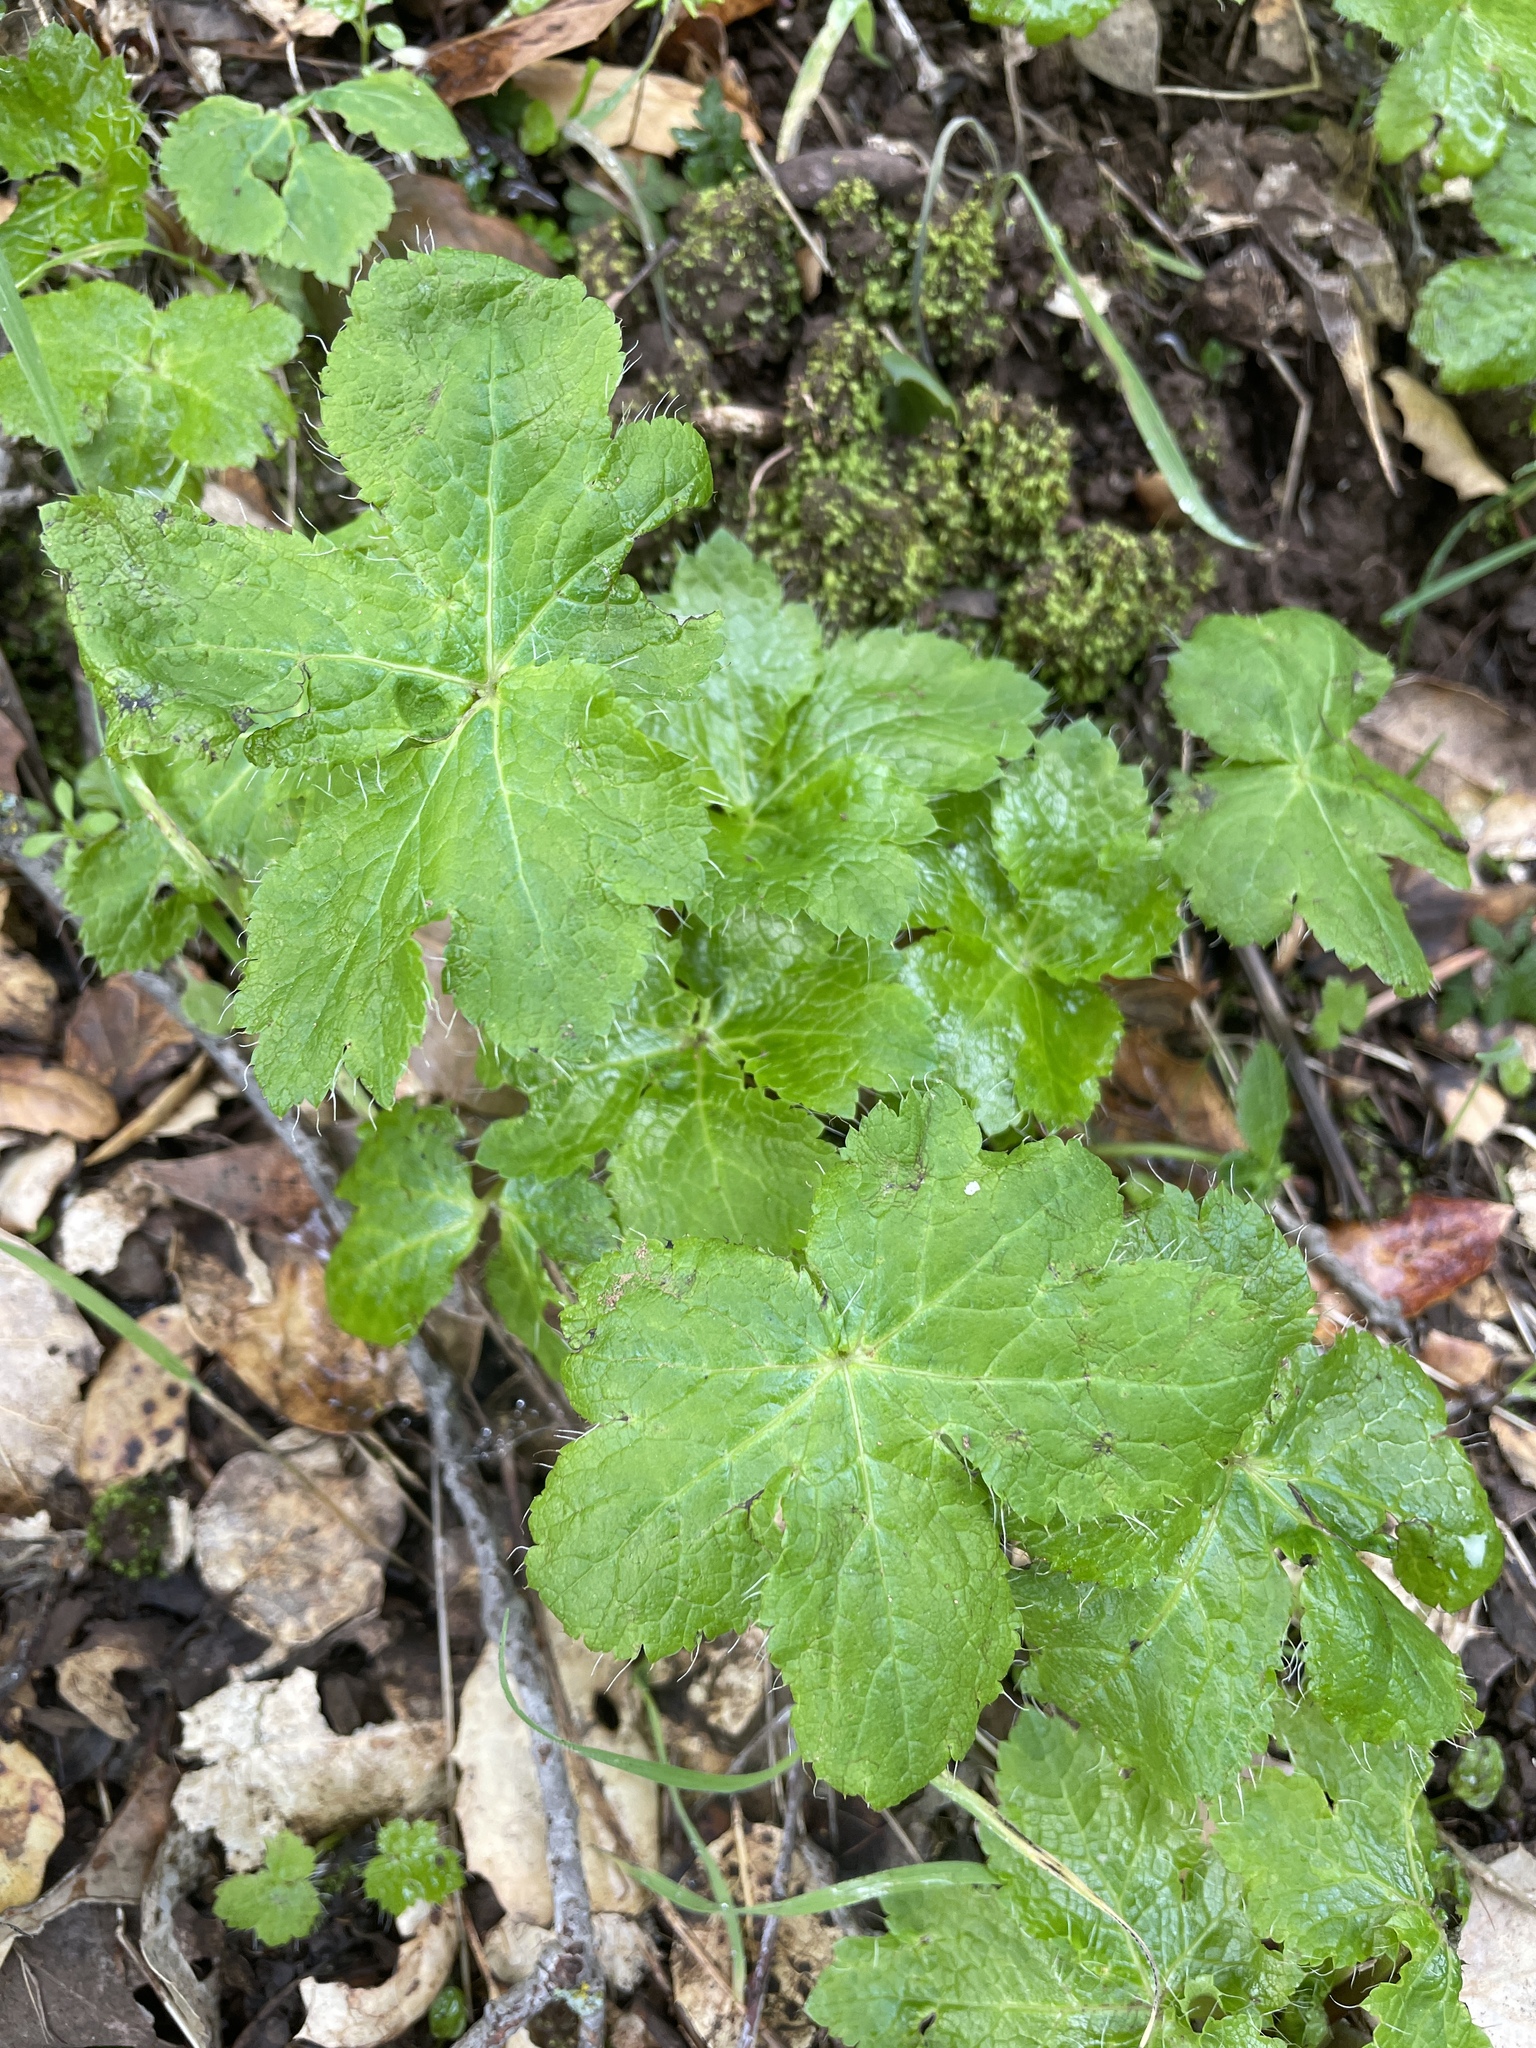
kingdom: Plantae
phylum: Tracheophyta
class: Magnoliopsida
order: Apiales
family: Apiaceae
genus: Sanicula
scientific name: Sanicula crassicaulis
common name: Western snakeroot
